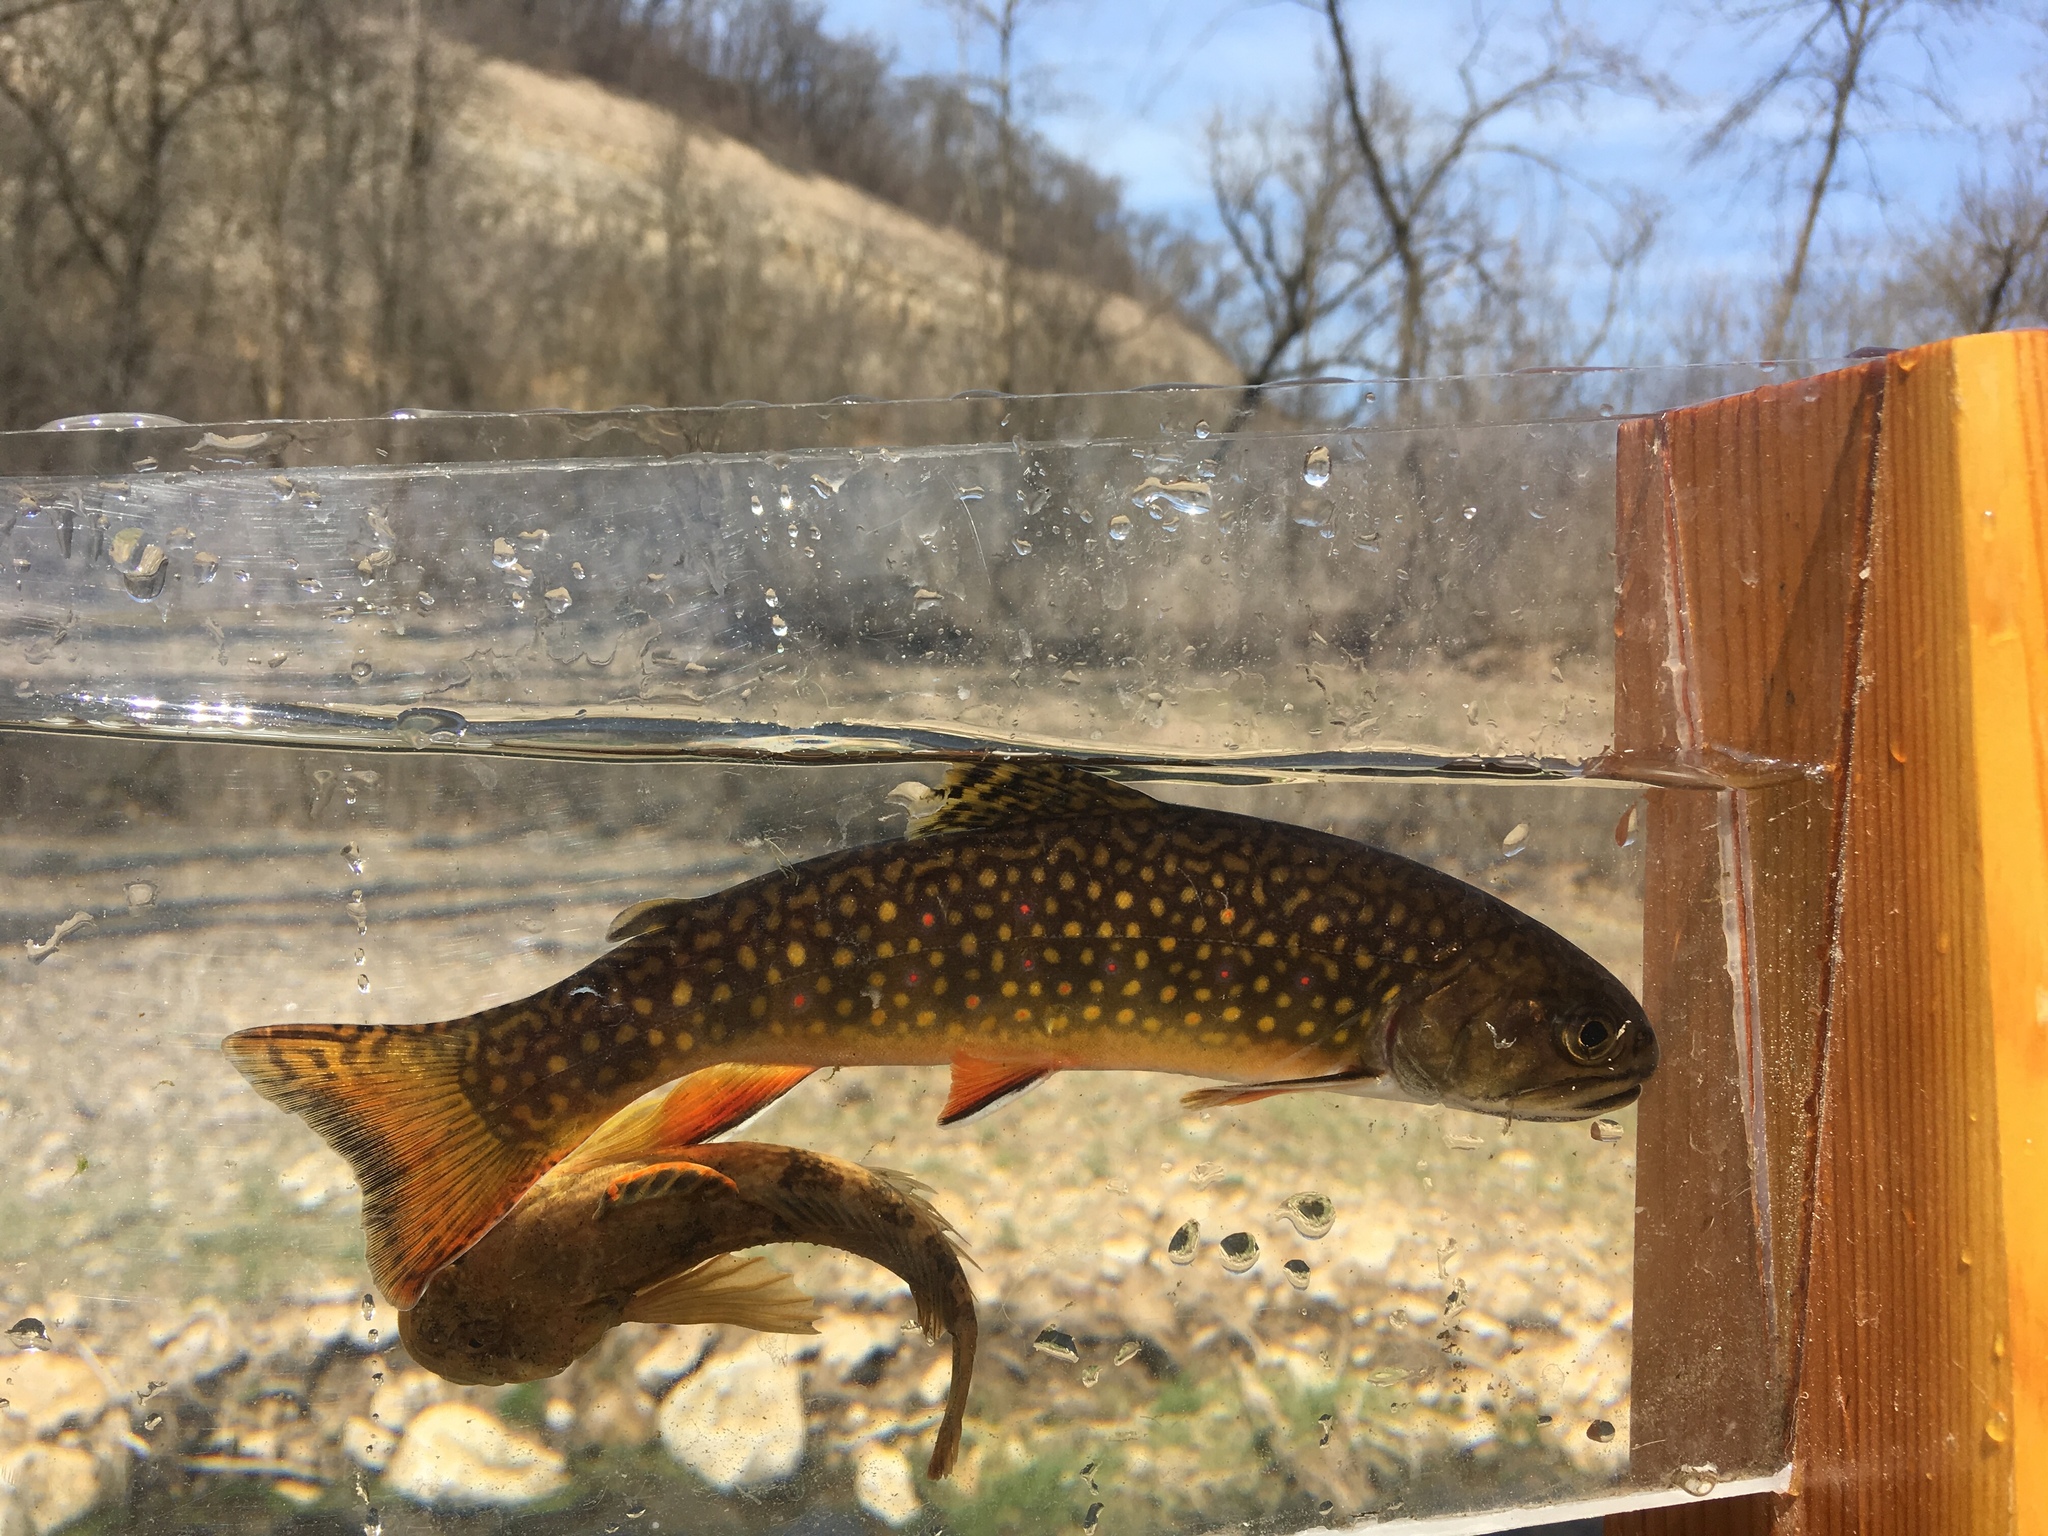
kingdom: Animalia
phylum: Chordata
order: Salmoniformes
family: Salmonidae
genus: Salvelinus
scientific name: Salvelinus fontinalis
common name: Brook trout
